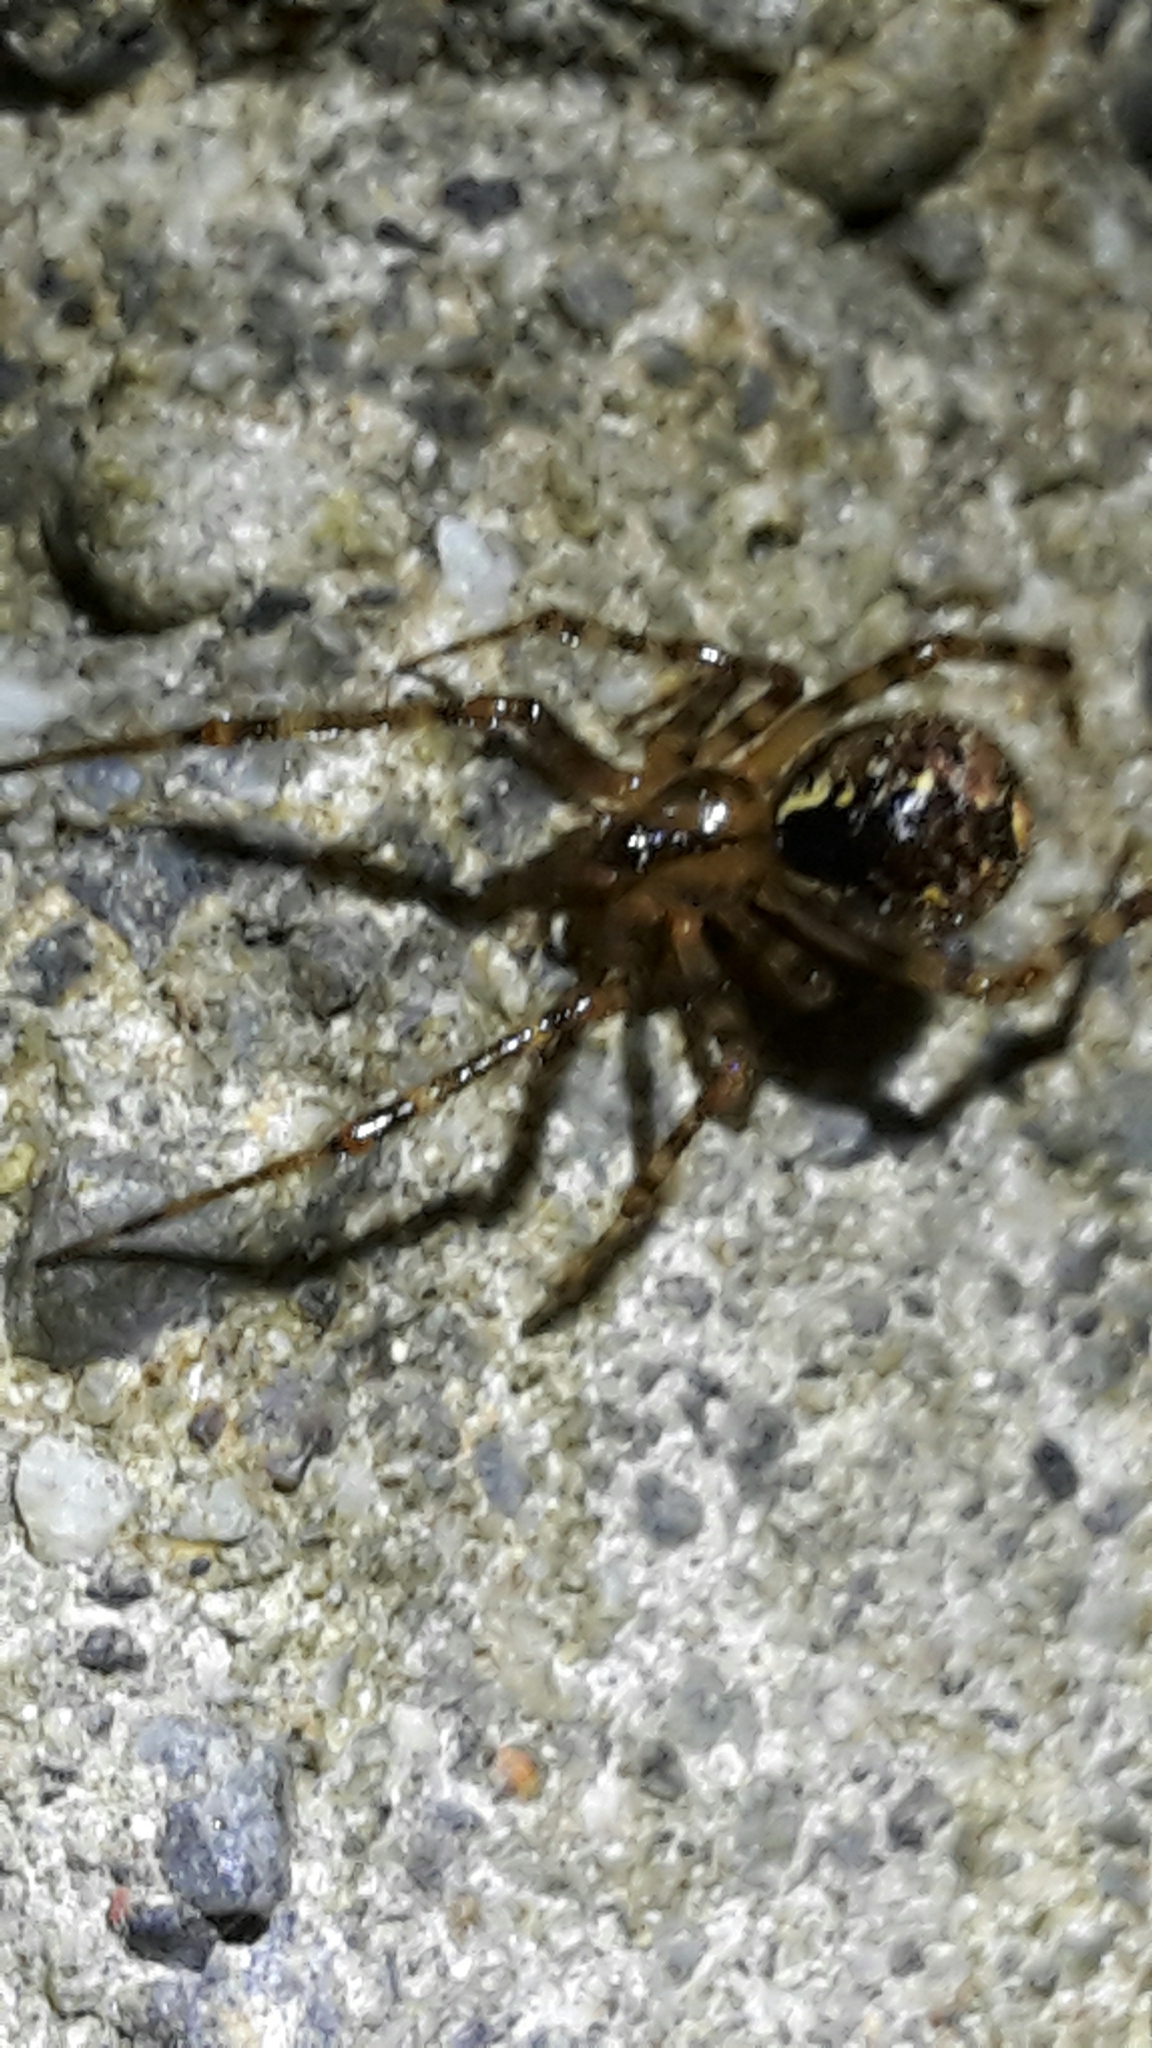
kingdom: Animalia
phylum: Arthropoda
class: Arachnida
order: Araneae
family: Theridiidae
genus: Cryptachaea
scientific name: Cryptachaea veruculata
